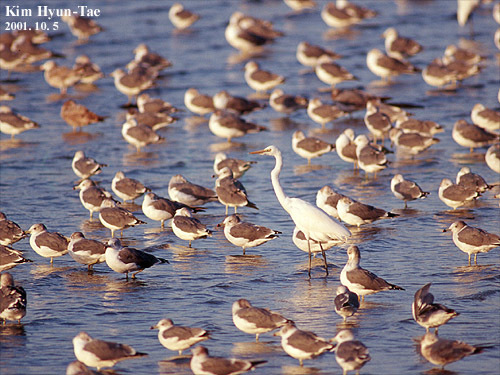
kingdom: Animalia
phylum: Chordata
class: Aves
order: Pelecaniformes
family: Ardeidae
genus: Ardea
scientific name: Ardea alba
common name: Great egret
